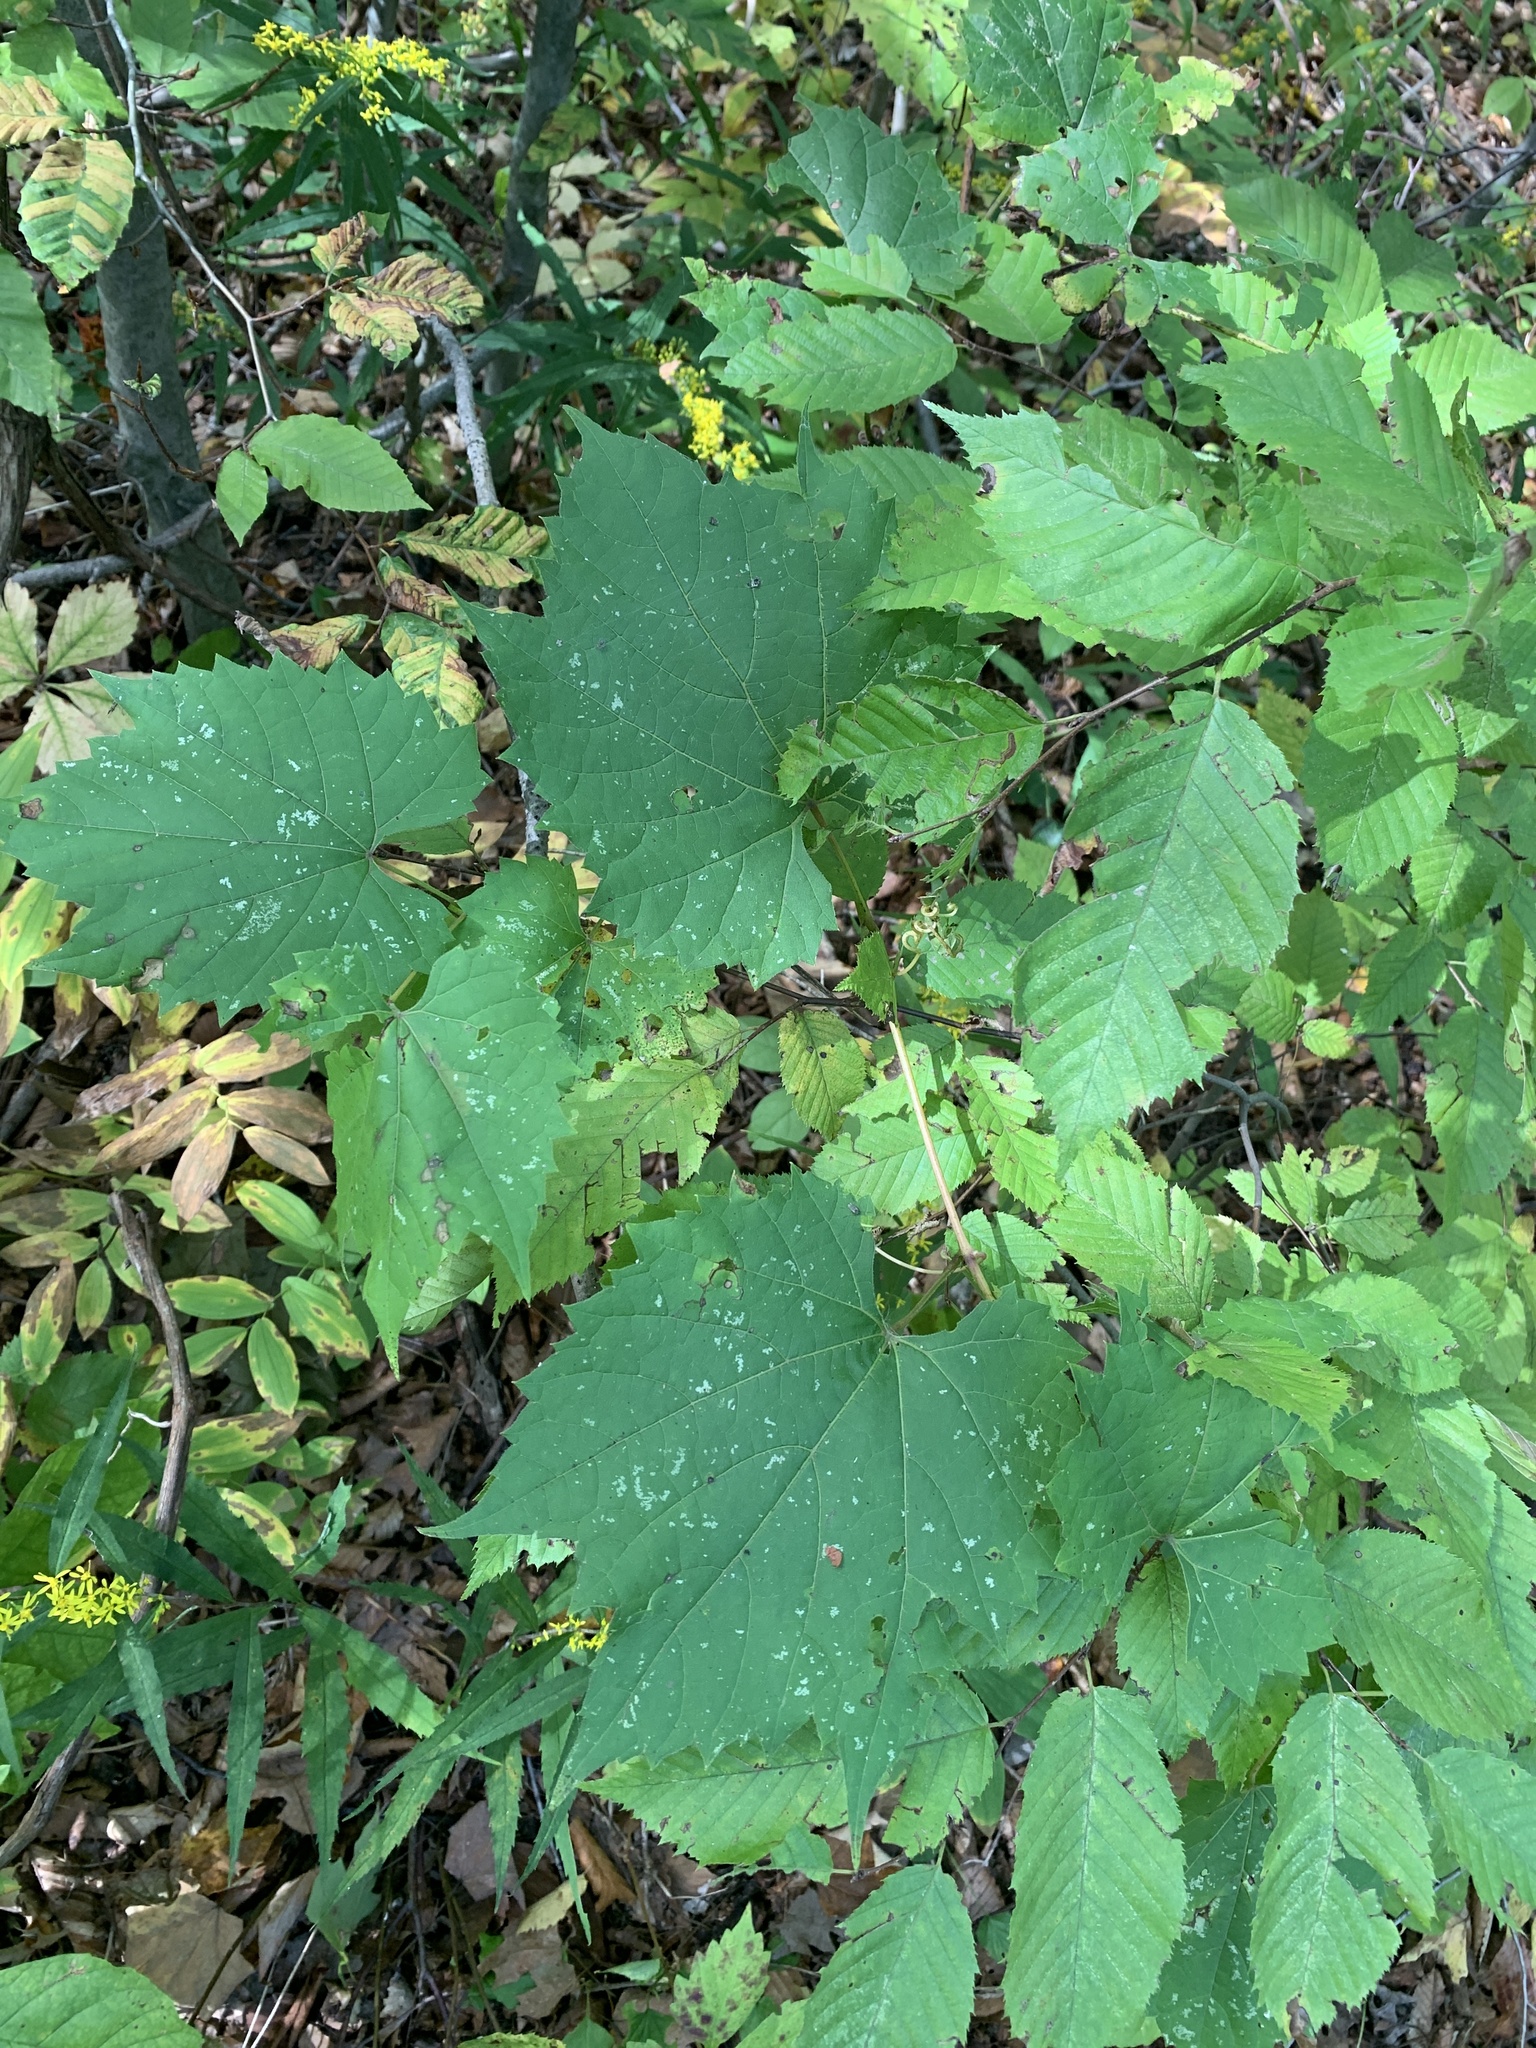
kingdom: Plantae
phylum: Tracheophyta
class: Magnoliopsida
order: Vitales
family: Vitaceae
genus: Vitis
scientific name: Vitis riparia
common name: Frost grape
